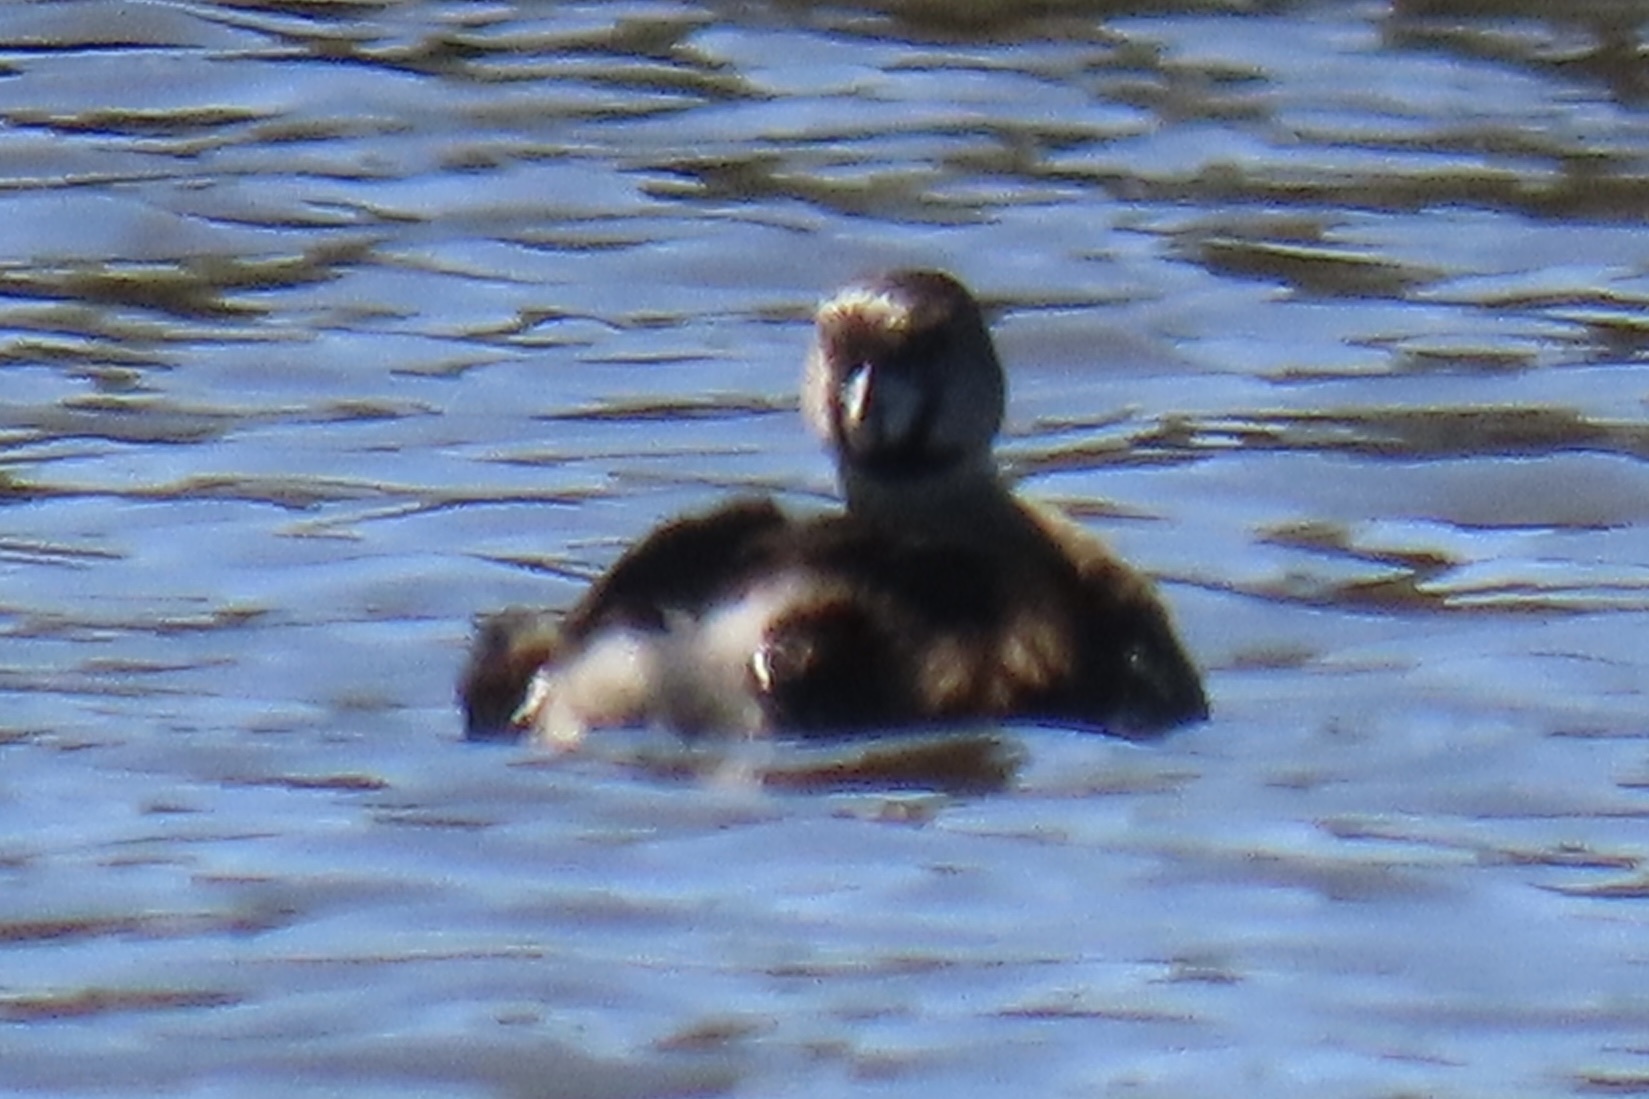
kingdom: Animalia
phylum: Chordata
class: Aves
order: Podicipediformes
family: Podicipedidae
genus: Podilymbus
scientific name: Podilymbus podiceps
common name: Pied-billed grebe
